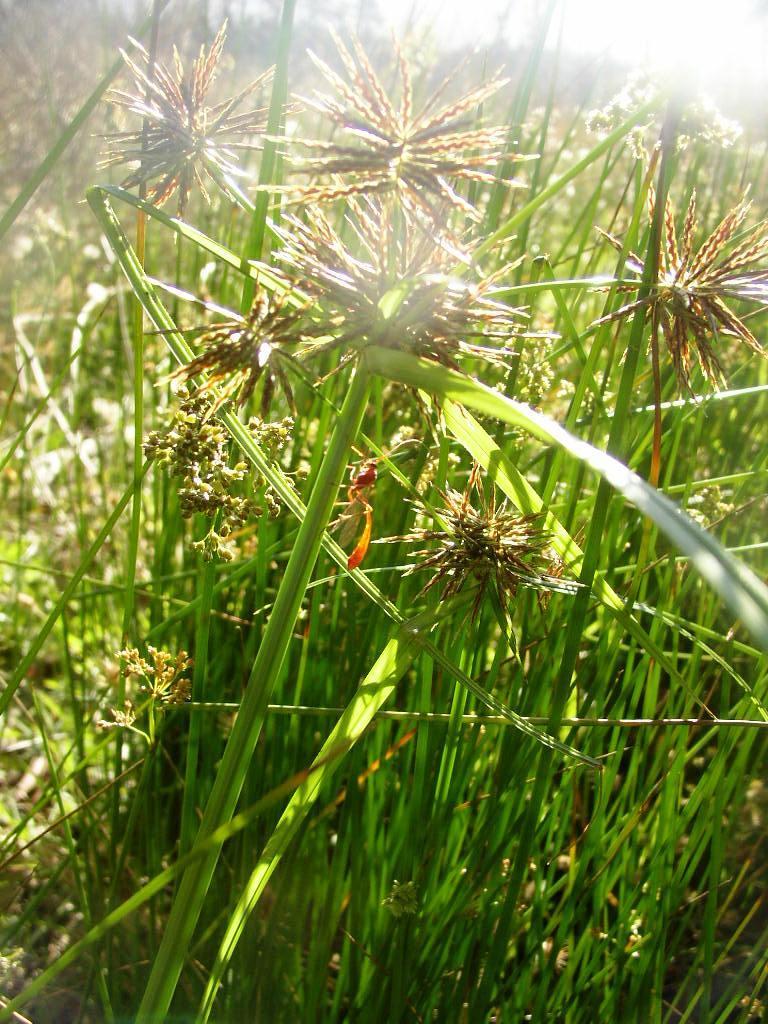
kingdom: Plantae
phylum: Tracheophyta
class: Liliopsida
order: Poales
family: Cyperaceae
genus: Cyperus
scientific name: Cyperus congestus
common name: Dense flat sedge
